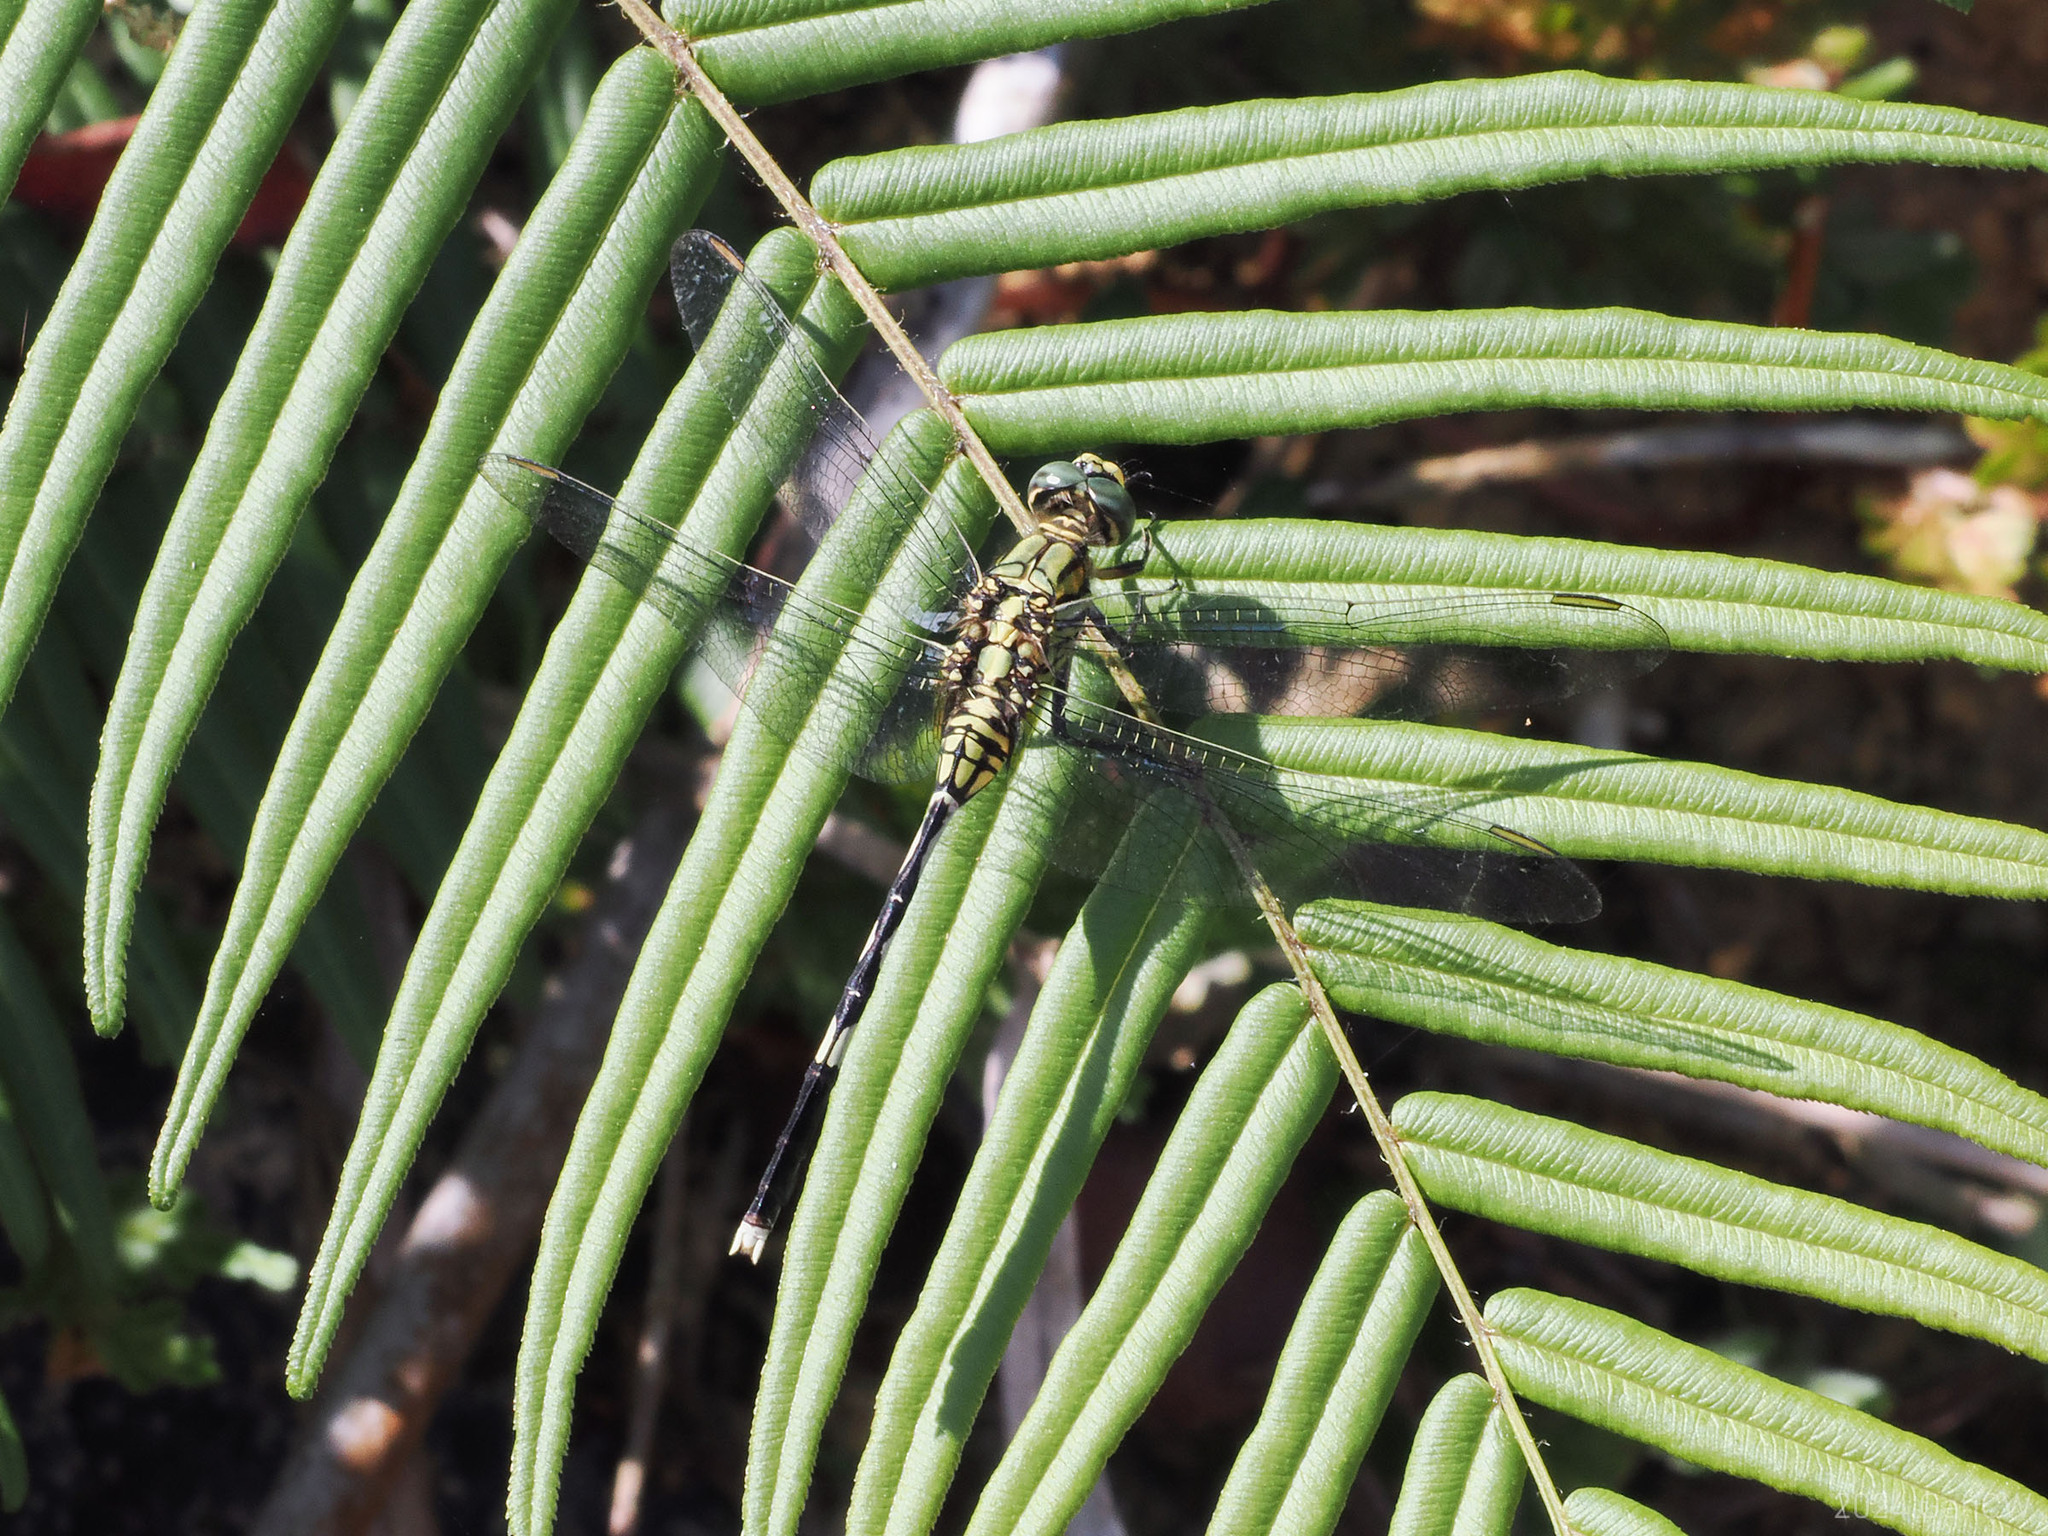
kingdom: Animalia
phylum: Arthropoda
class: Insecta
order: Odonata
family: Libellulidae
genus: Orthetrum
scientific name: Orthetrum sabina
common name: Slender skimmer
